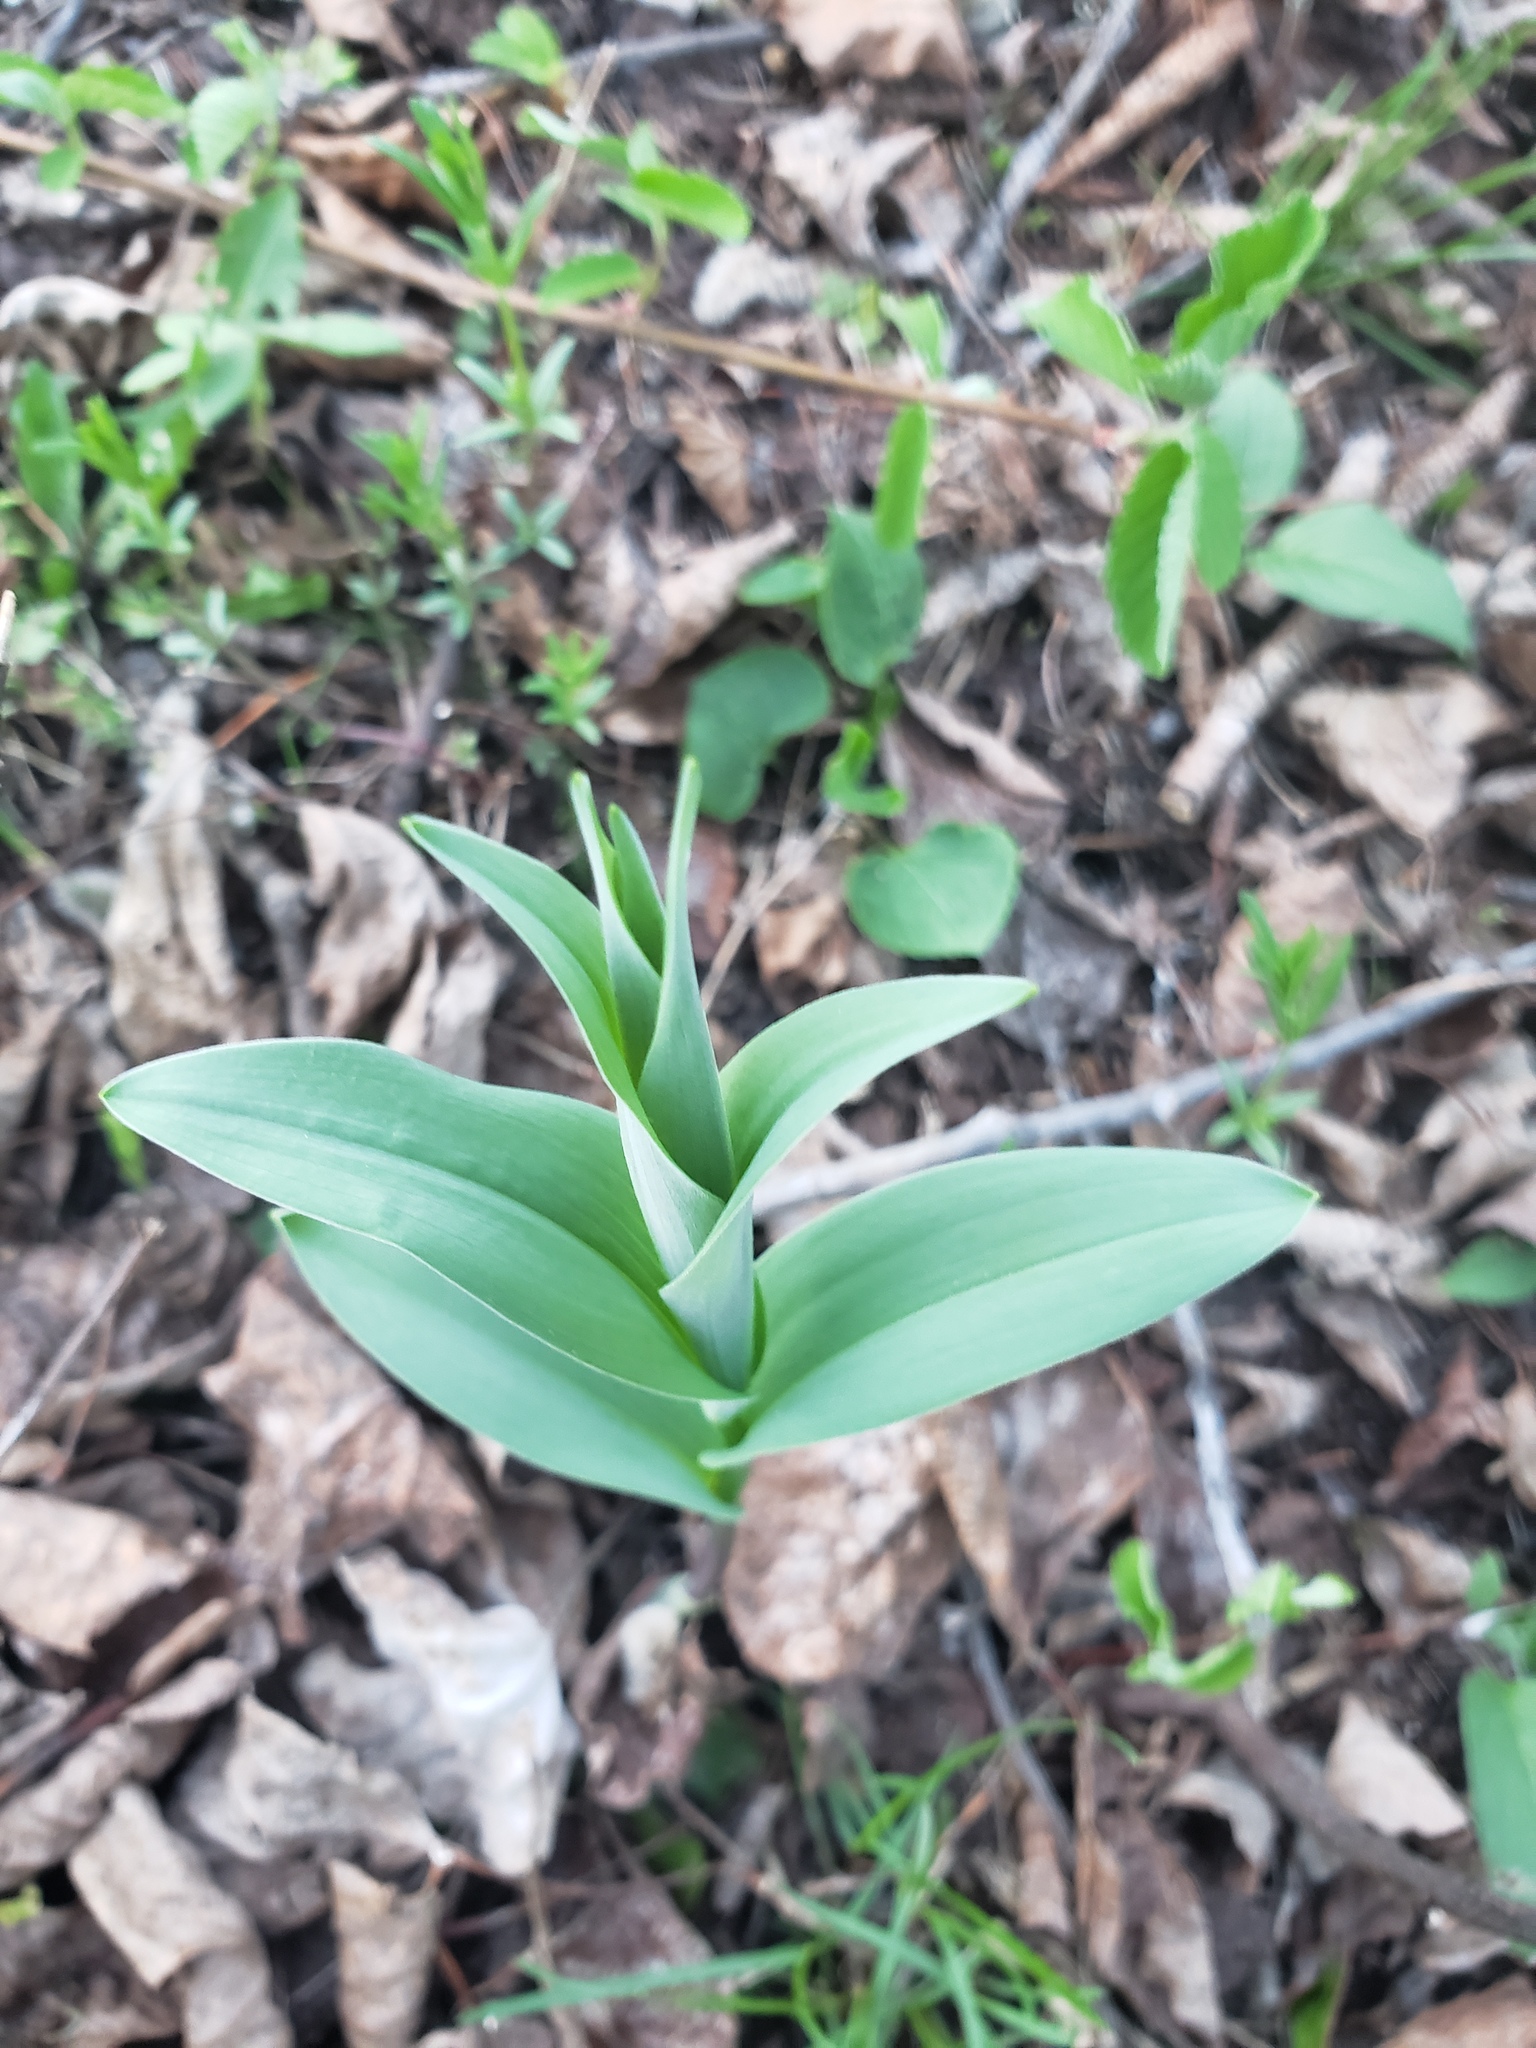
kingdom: Plantae
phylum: Tracheophyta
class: Liliopsida
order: Asparagales
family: Asparagaceae
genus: Maianthemum
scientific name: Maianthemum stellatum
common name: Little false solomon's seal
